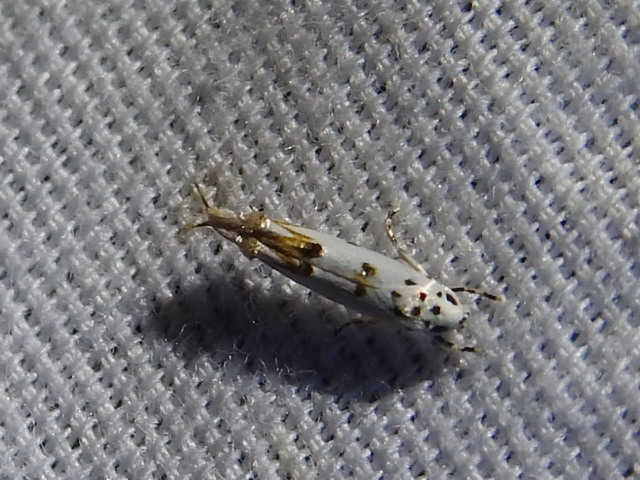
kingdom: Animalia
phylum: Arthropoda
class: Insecta
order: Lepidoptera
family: Momphidae
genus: Mompha
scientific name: Mompha eloisella
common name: Red-streaked mompha moth
